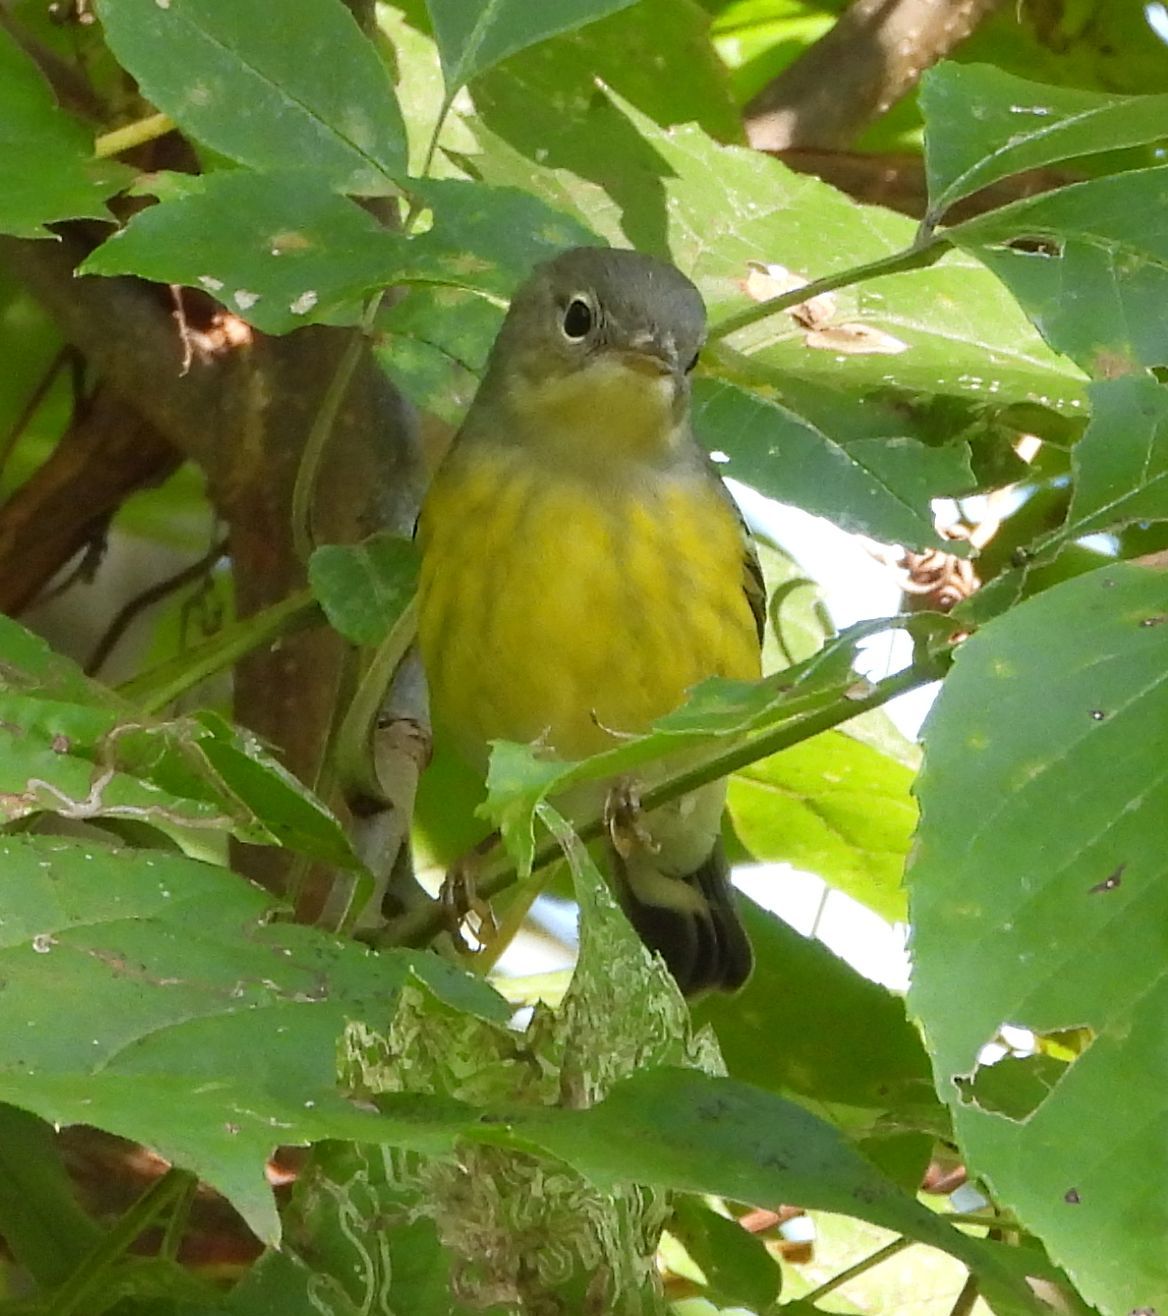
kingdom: Animalia
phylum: Chordata
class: Aves
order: Passeriformes
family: Parulidae
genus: Setophaga
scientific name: Setophaga magnolia
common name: Magnolia warbler
